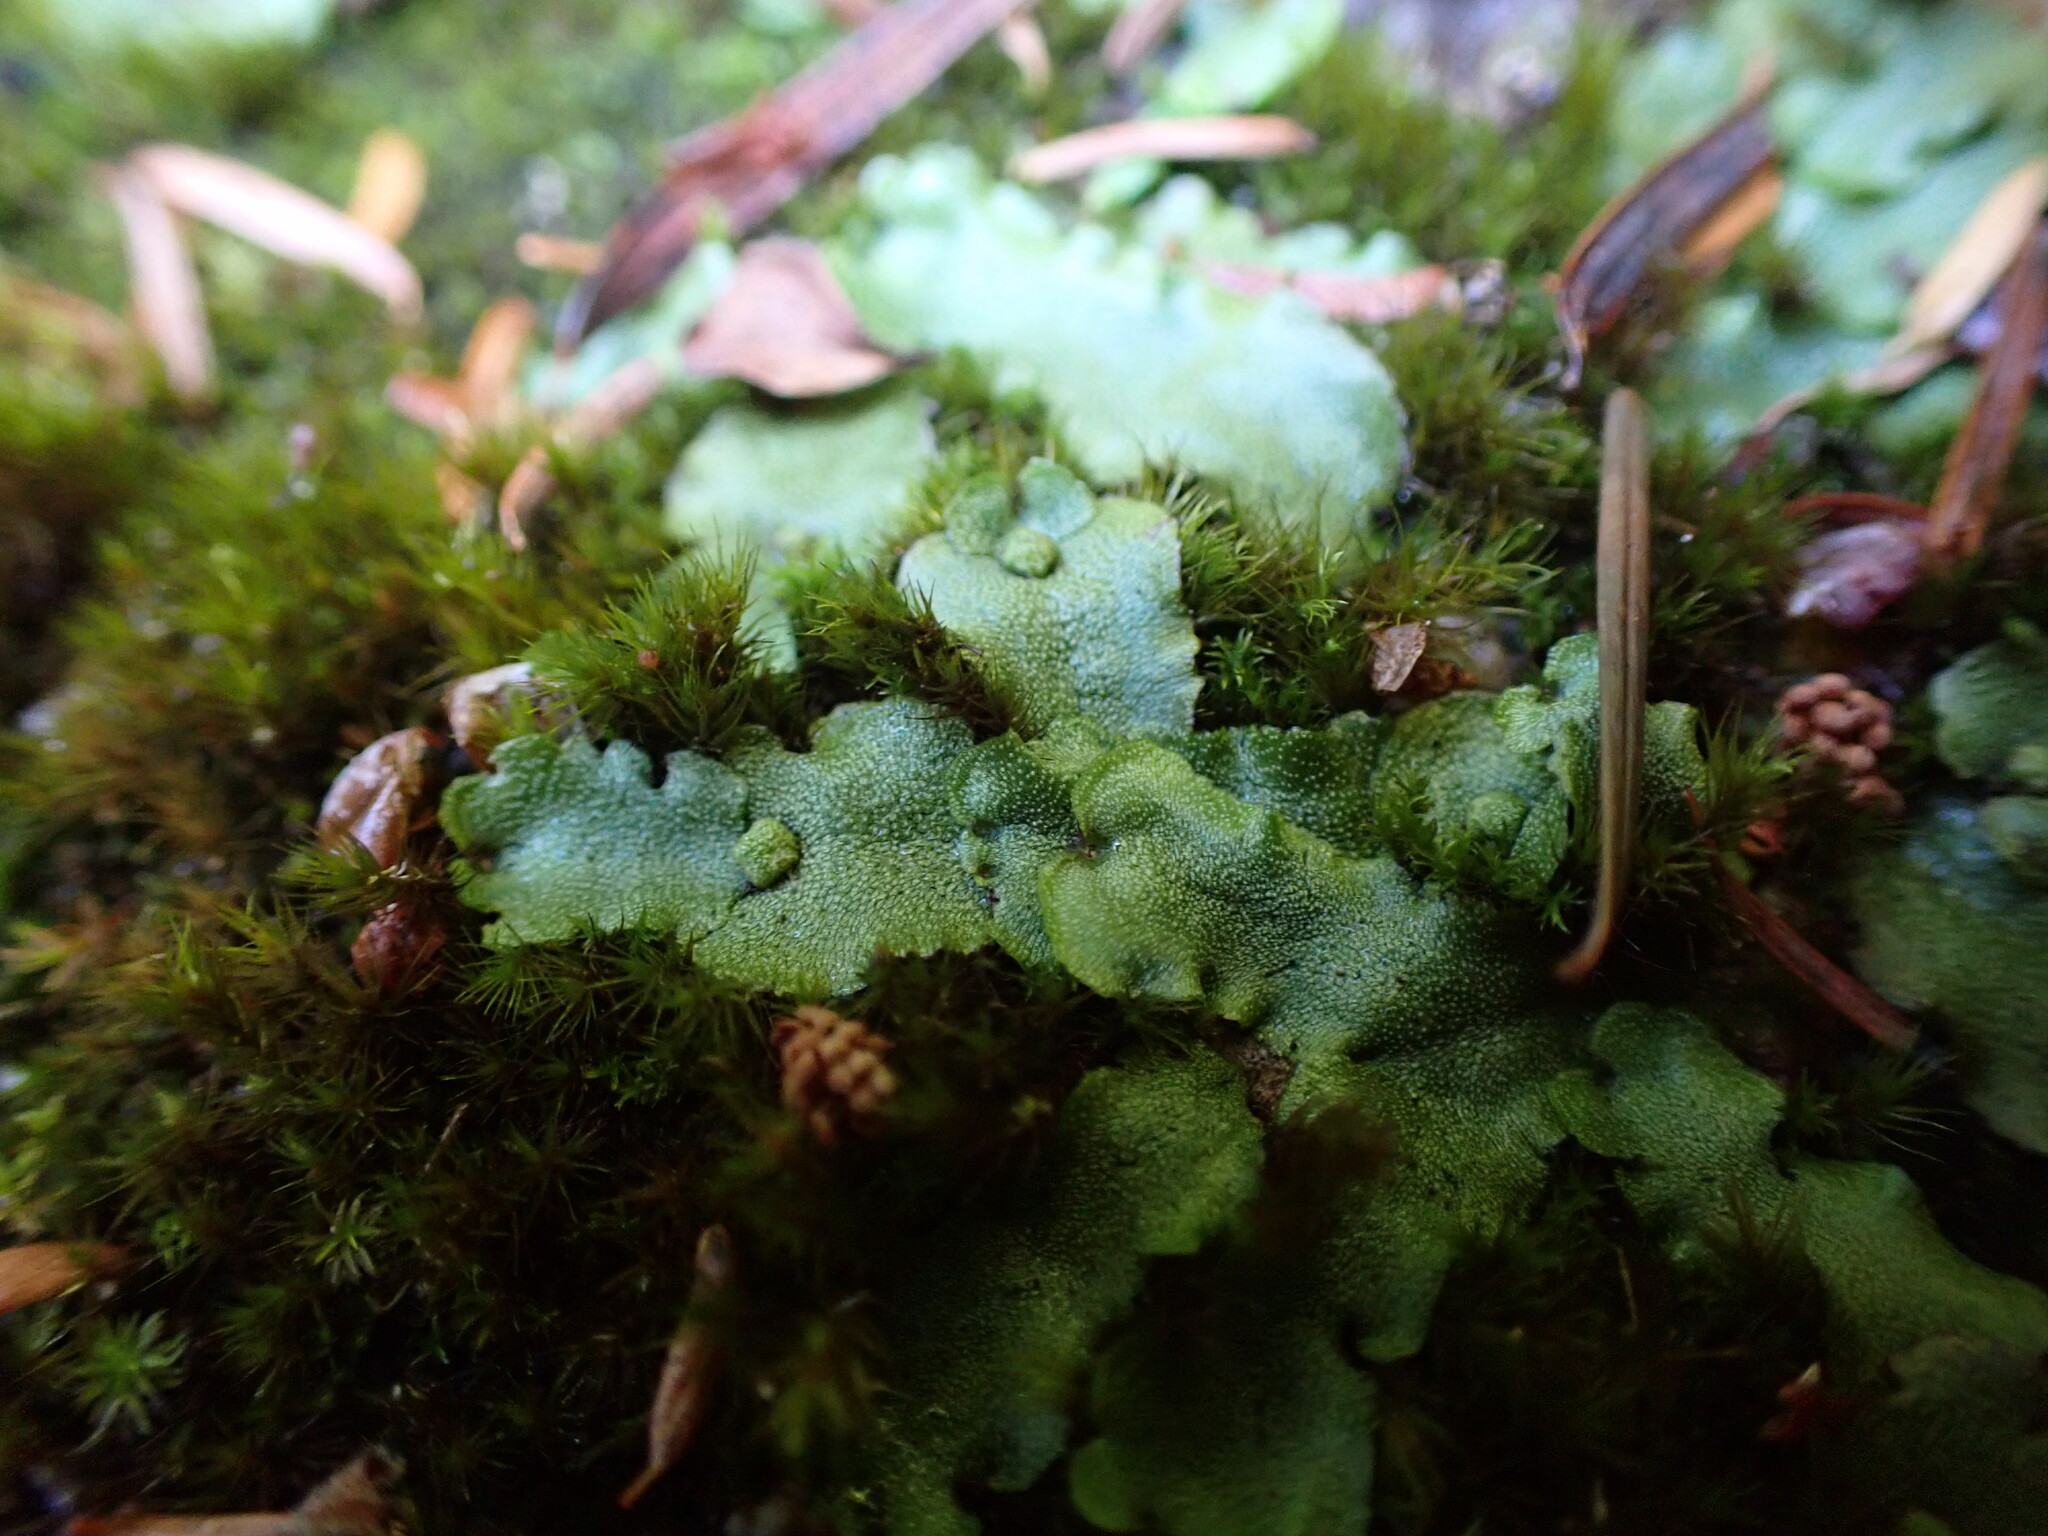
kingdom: Plantae
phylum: Marchantiophyta
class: Marchantiopsida
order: Marchantiales
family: Marchantiaceae
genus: Marchantia
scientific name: Marchantia quadrata
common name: Narrow mushroom-headed liverwort
